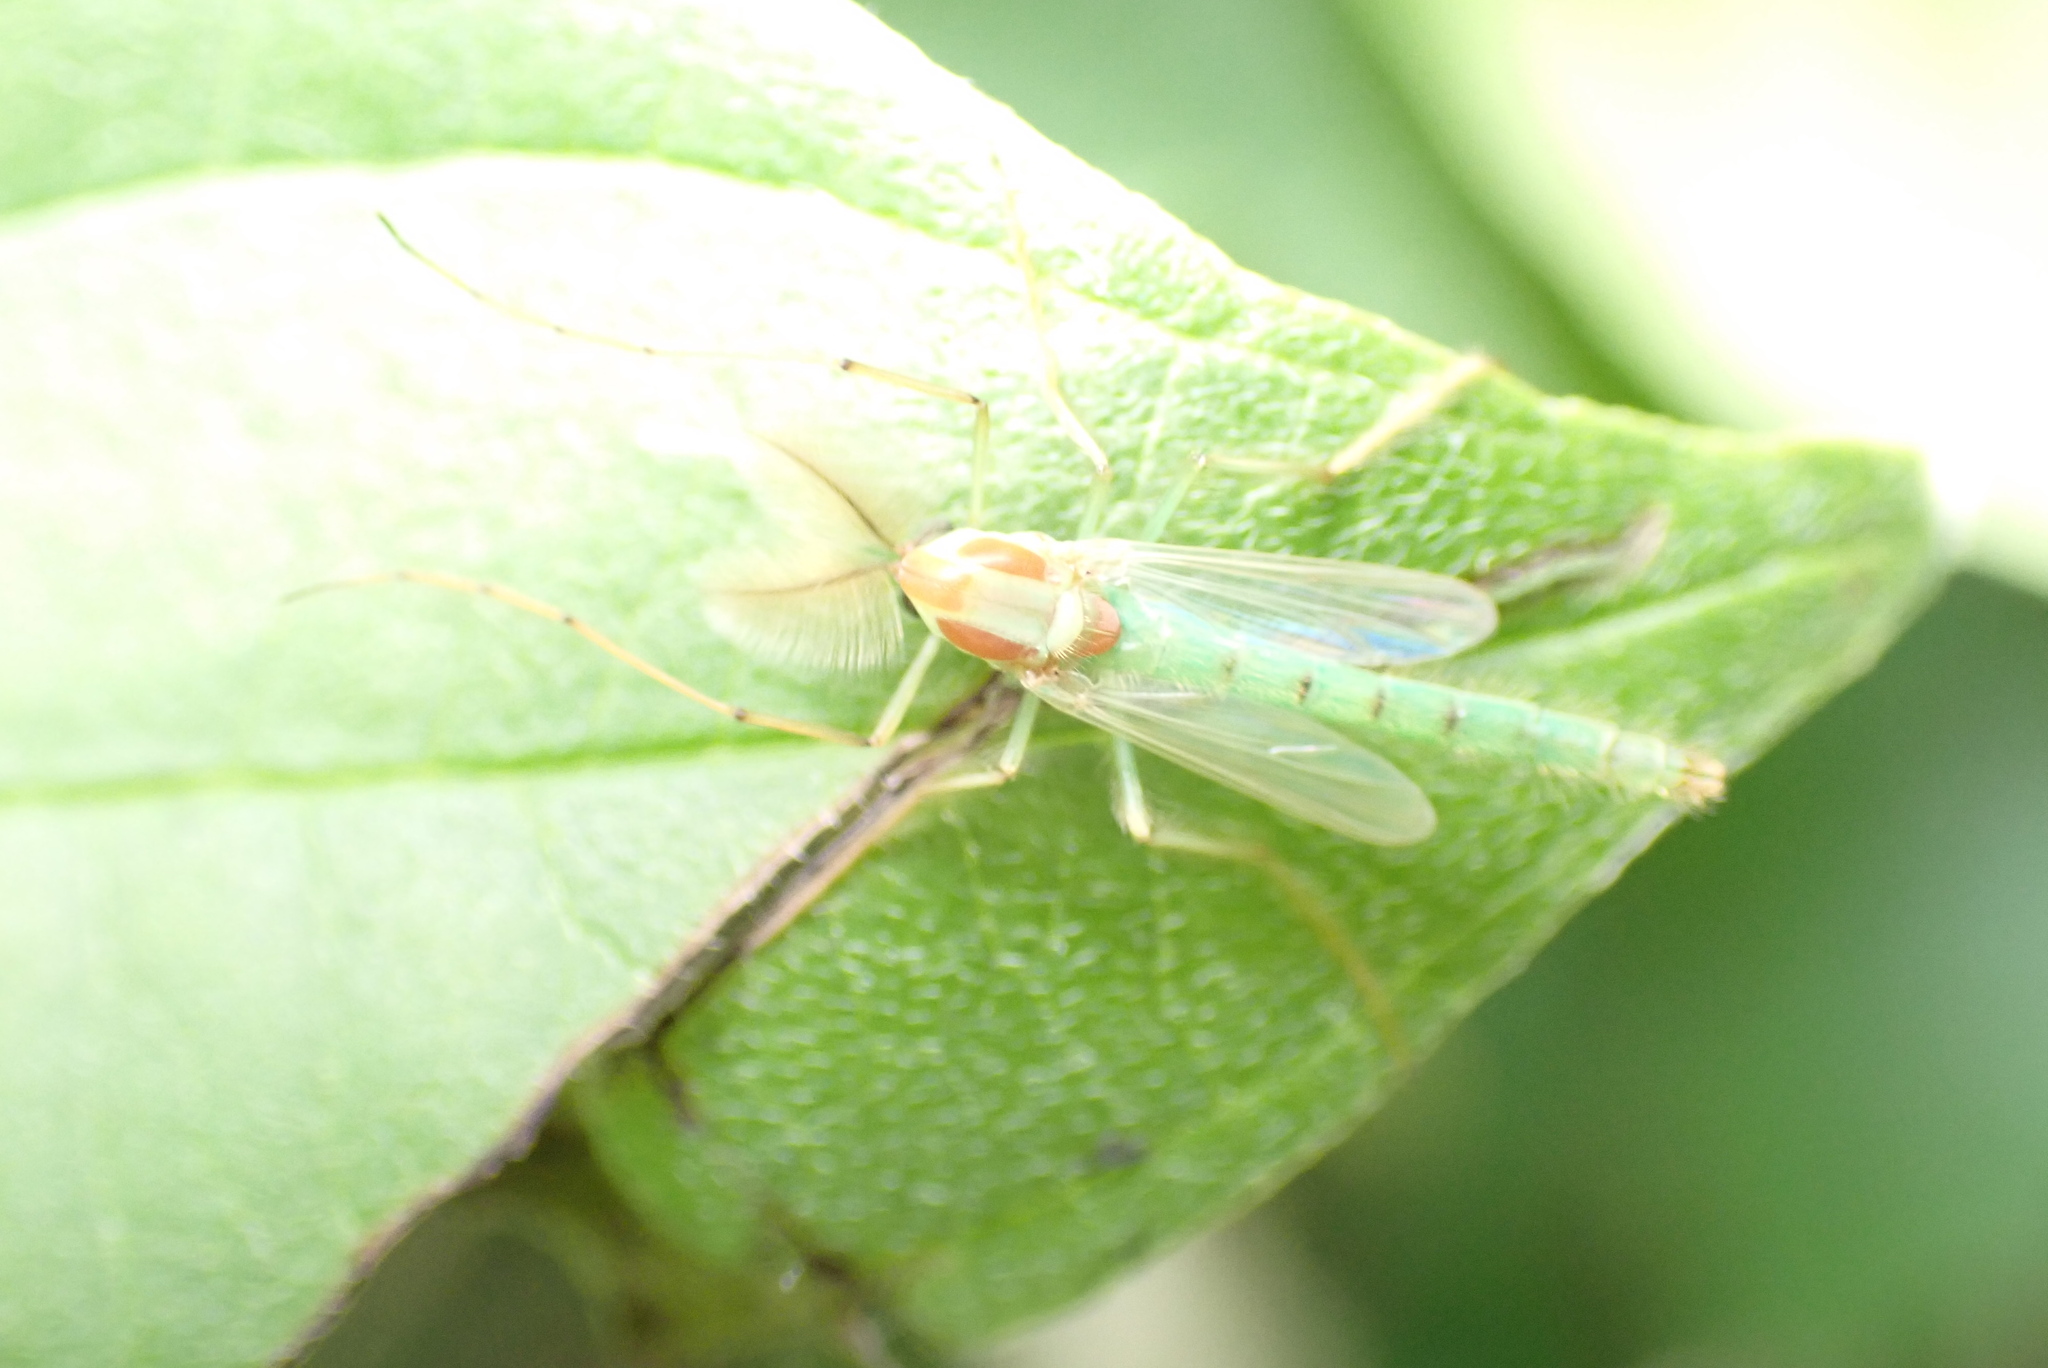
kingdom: Animalia
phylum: Arthropoda
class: Insecta
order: Diptera
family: Chironomidae
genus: Axarus
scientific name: Axarus
